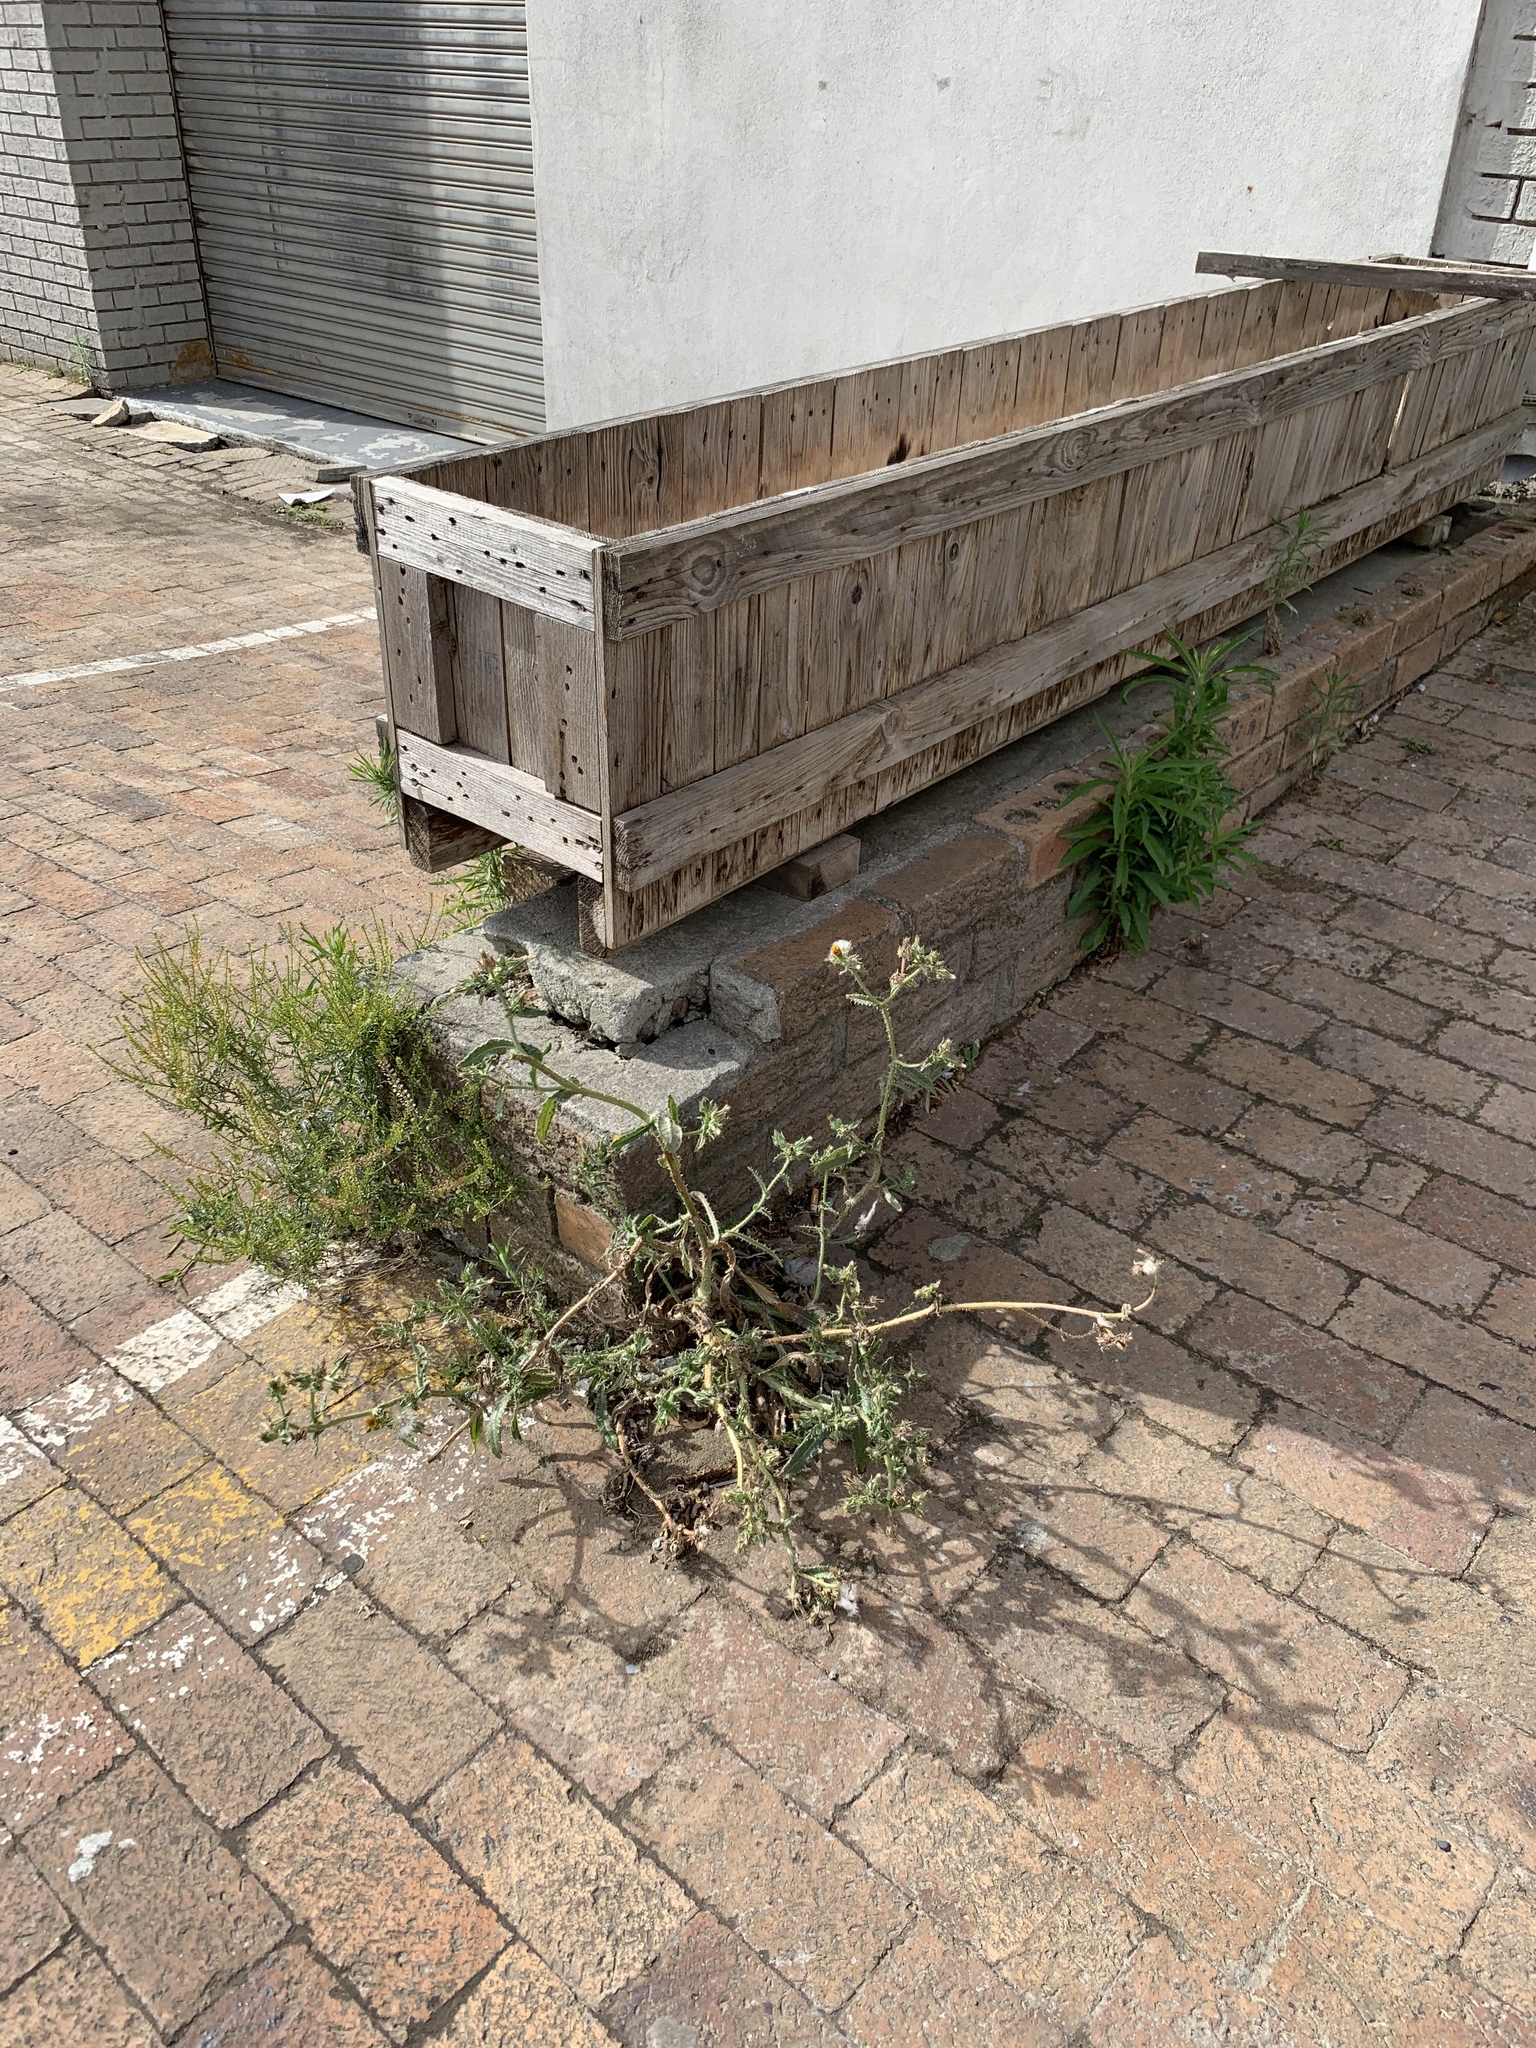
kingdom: Plantae
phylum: Tracheophyta
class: Magnoliopsida
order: Asterales
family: Asteraceae
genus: Helminthotheca
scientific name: Helminthotheca echioides
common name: Ox-tongue
